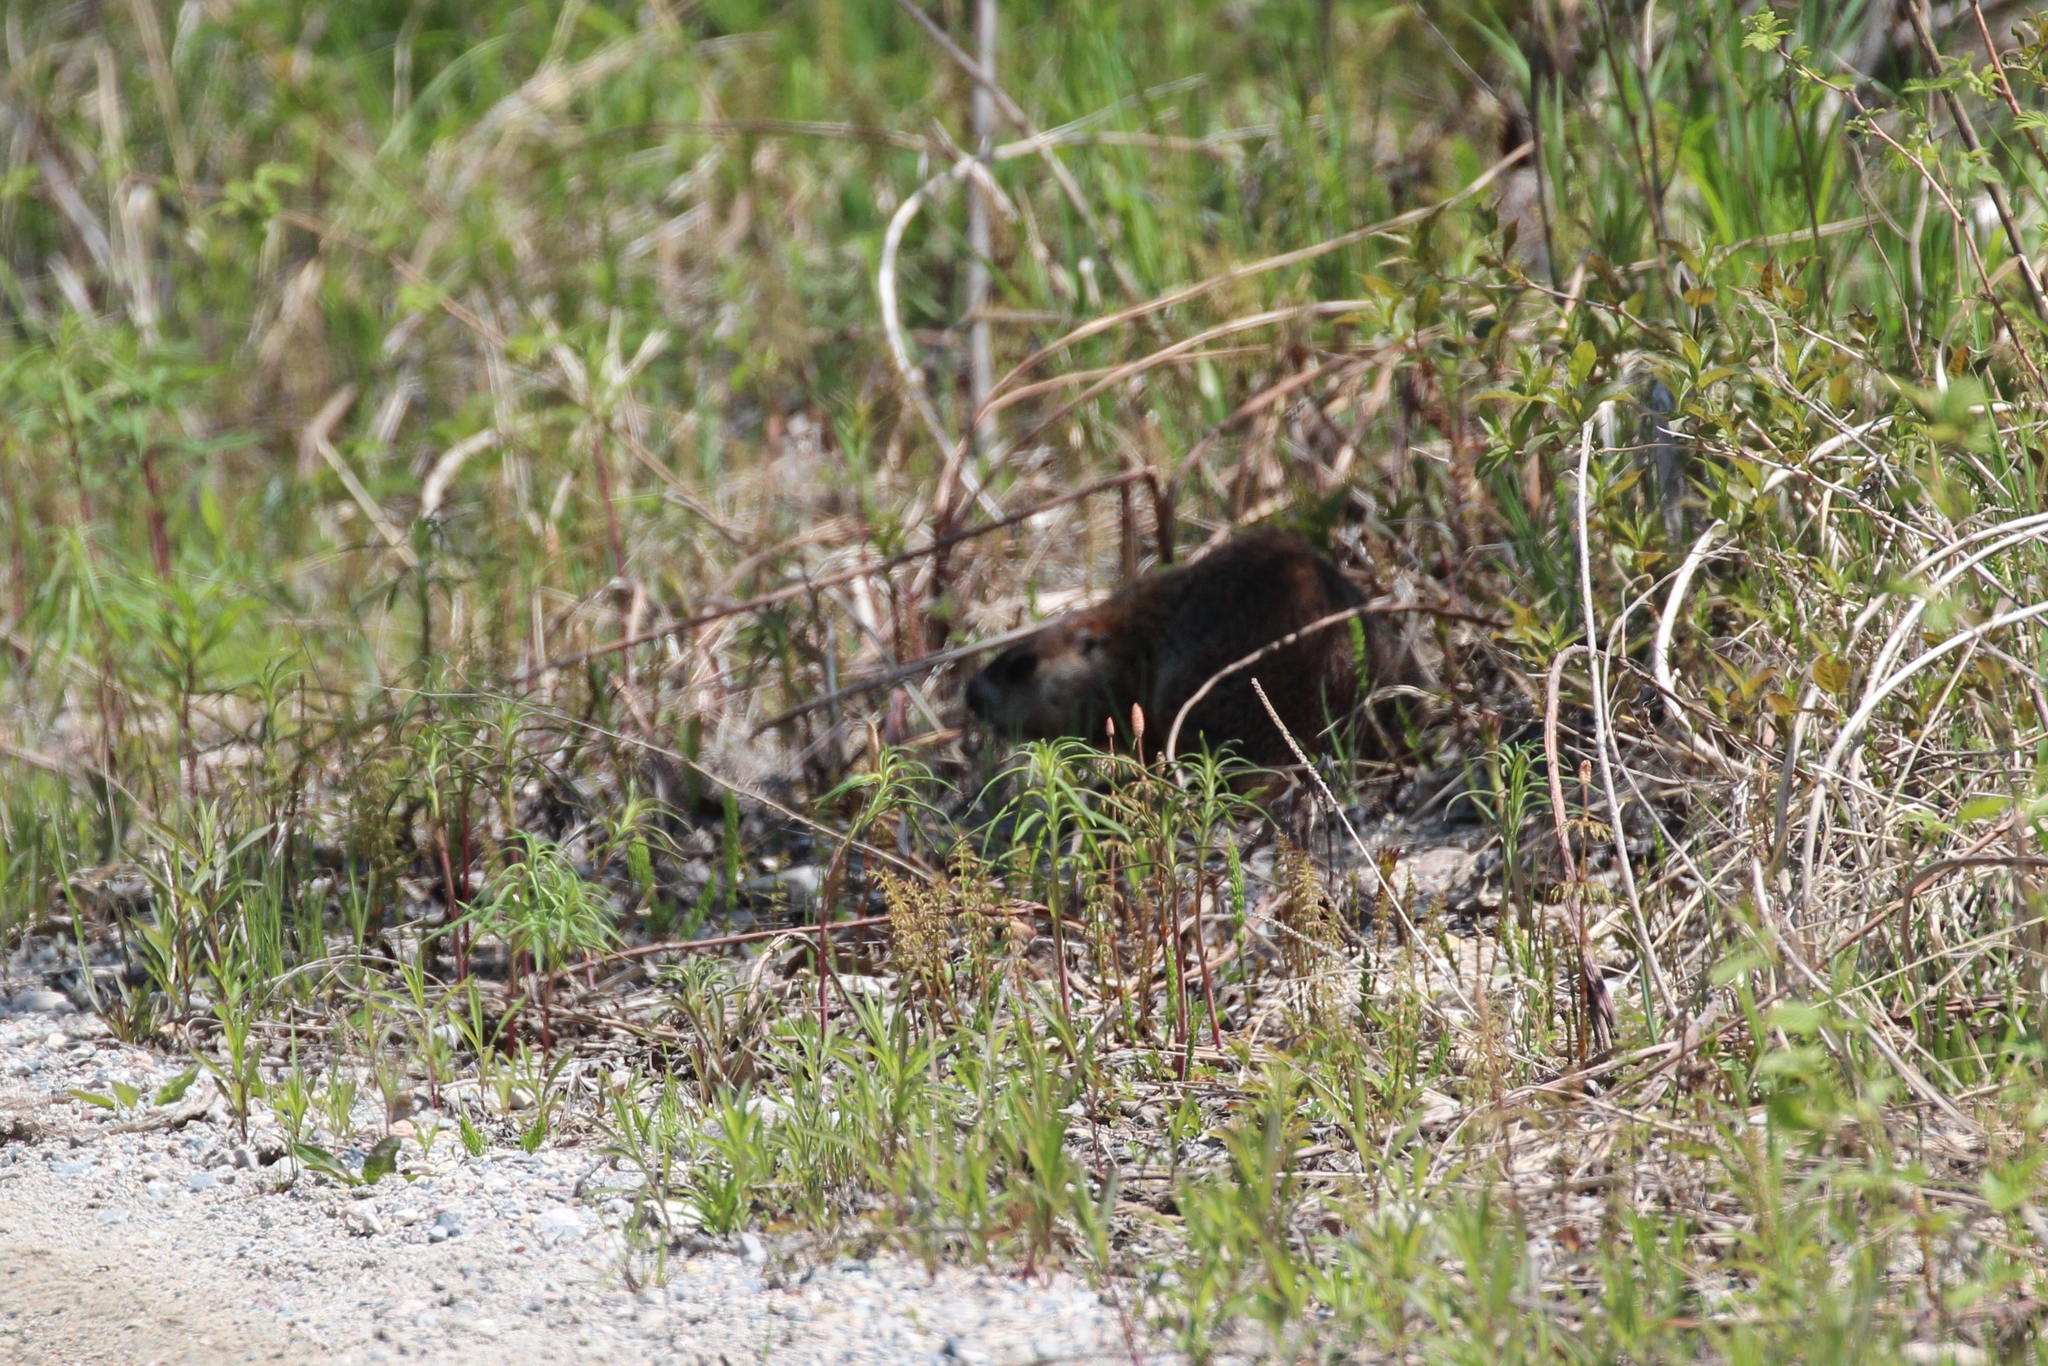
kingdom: Animalia
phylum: Chordata
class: Mammalia
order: Rodentia
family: Sciuridae
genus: Marmota
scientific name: Marmota monax
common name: Groundhog
